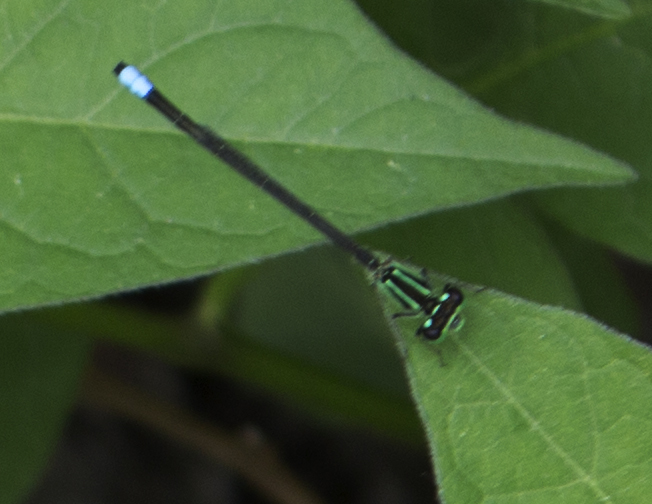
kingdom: Animalia
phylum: Arthropoda
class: Insecta
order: Odonata
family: Coenagrionidae
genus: Ischnura
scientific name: Ischnura verticalis
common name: Eastern forktail
